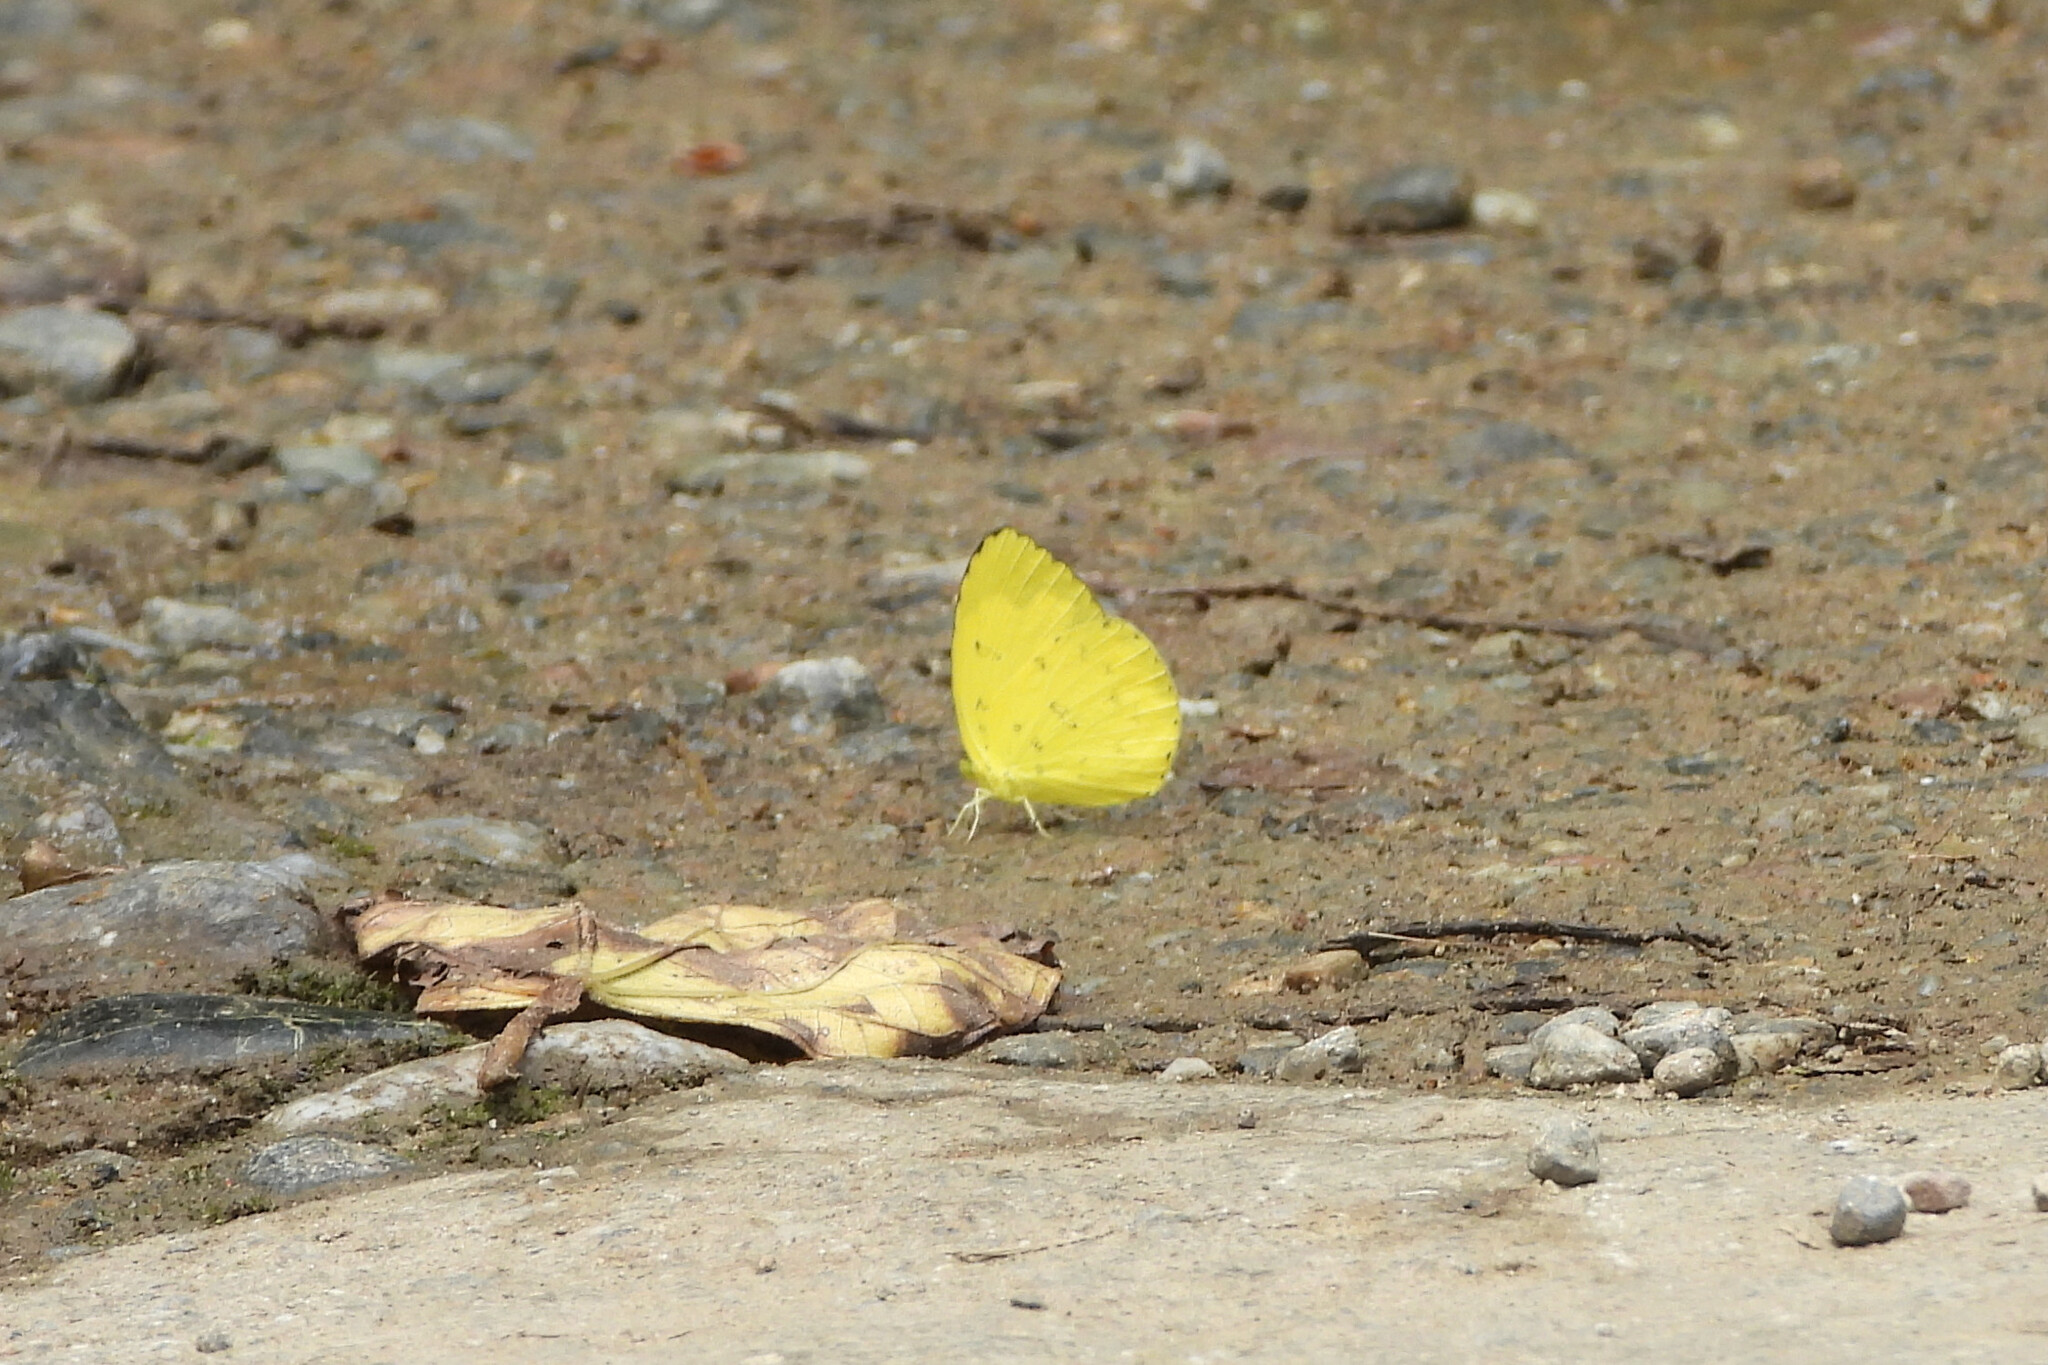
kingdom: Animalia
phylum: Arthropoda
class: Insecta
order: Lepidoptera
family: Pieridae
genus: Eurema
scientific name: Eurema blanda
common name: Three-spot grass yellow
